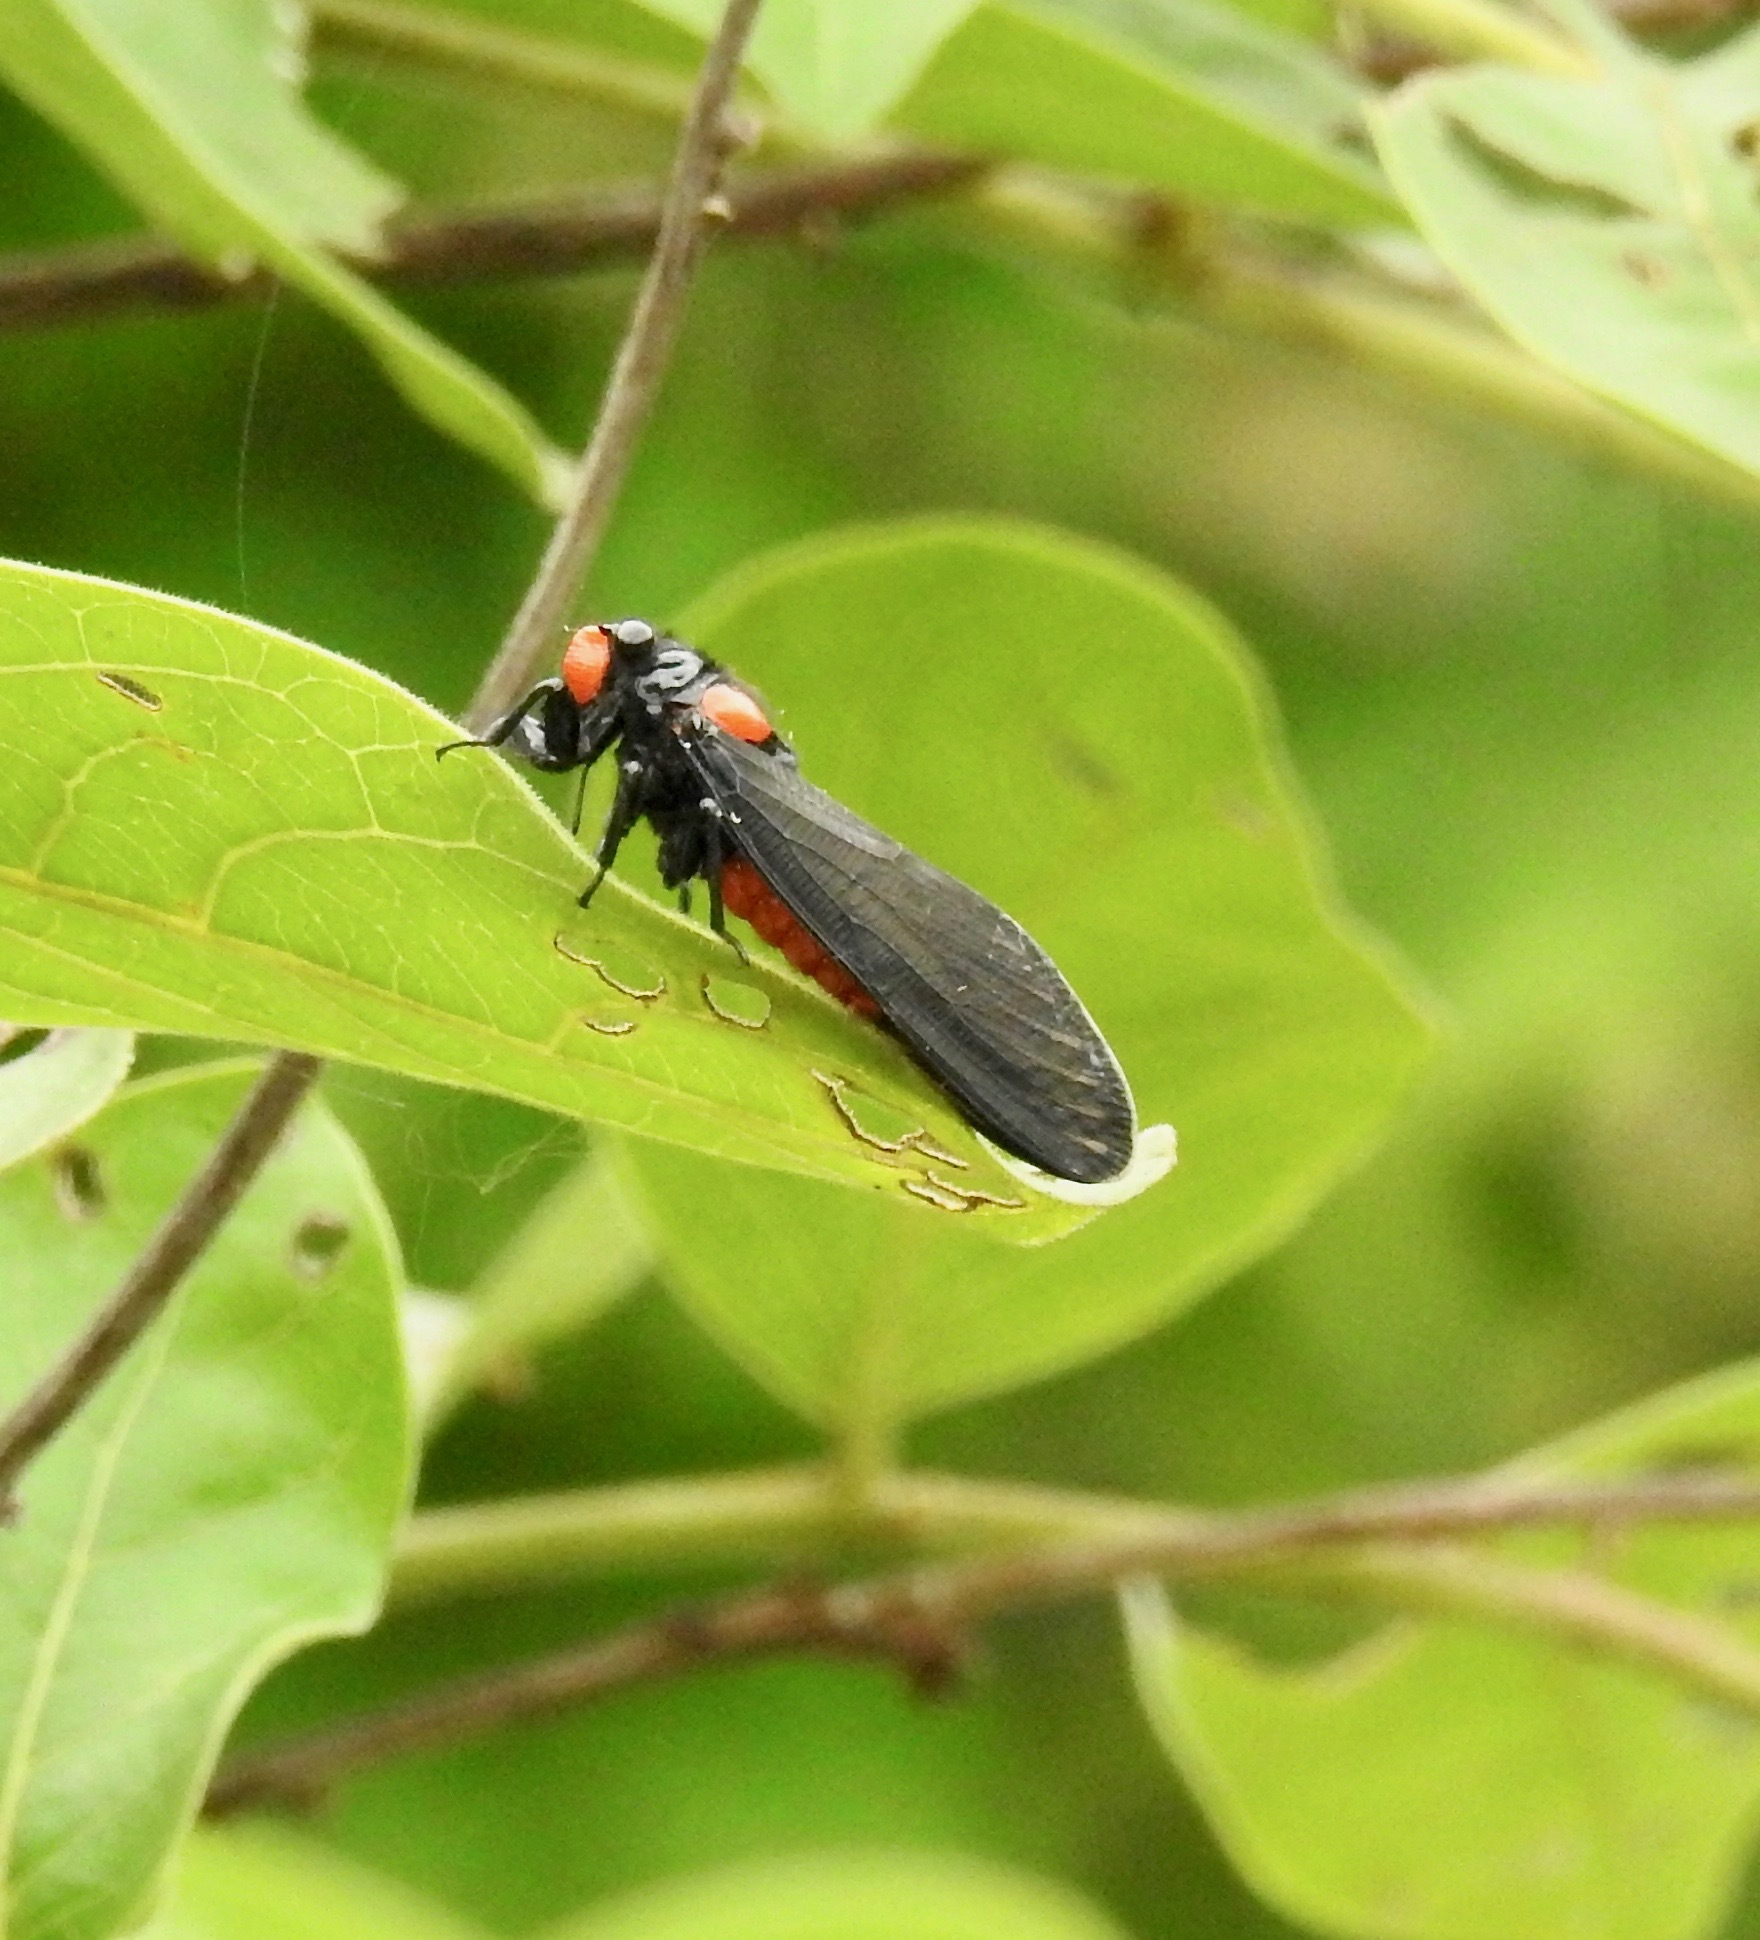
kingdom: Animalia
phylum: Arthropoda
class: Insecta
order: Hemiptera
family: Cicadidae
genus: Huechys
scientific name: Huechys sanguinea
